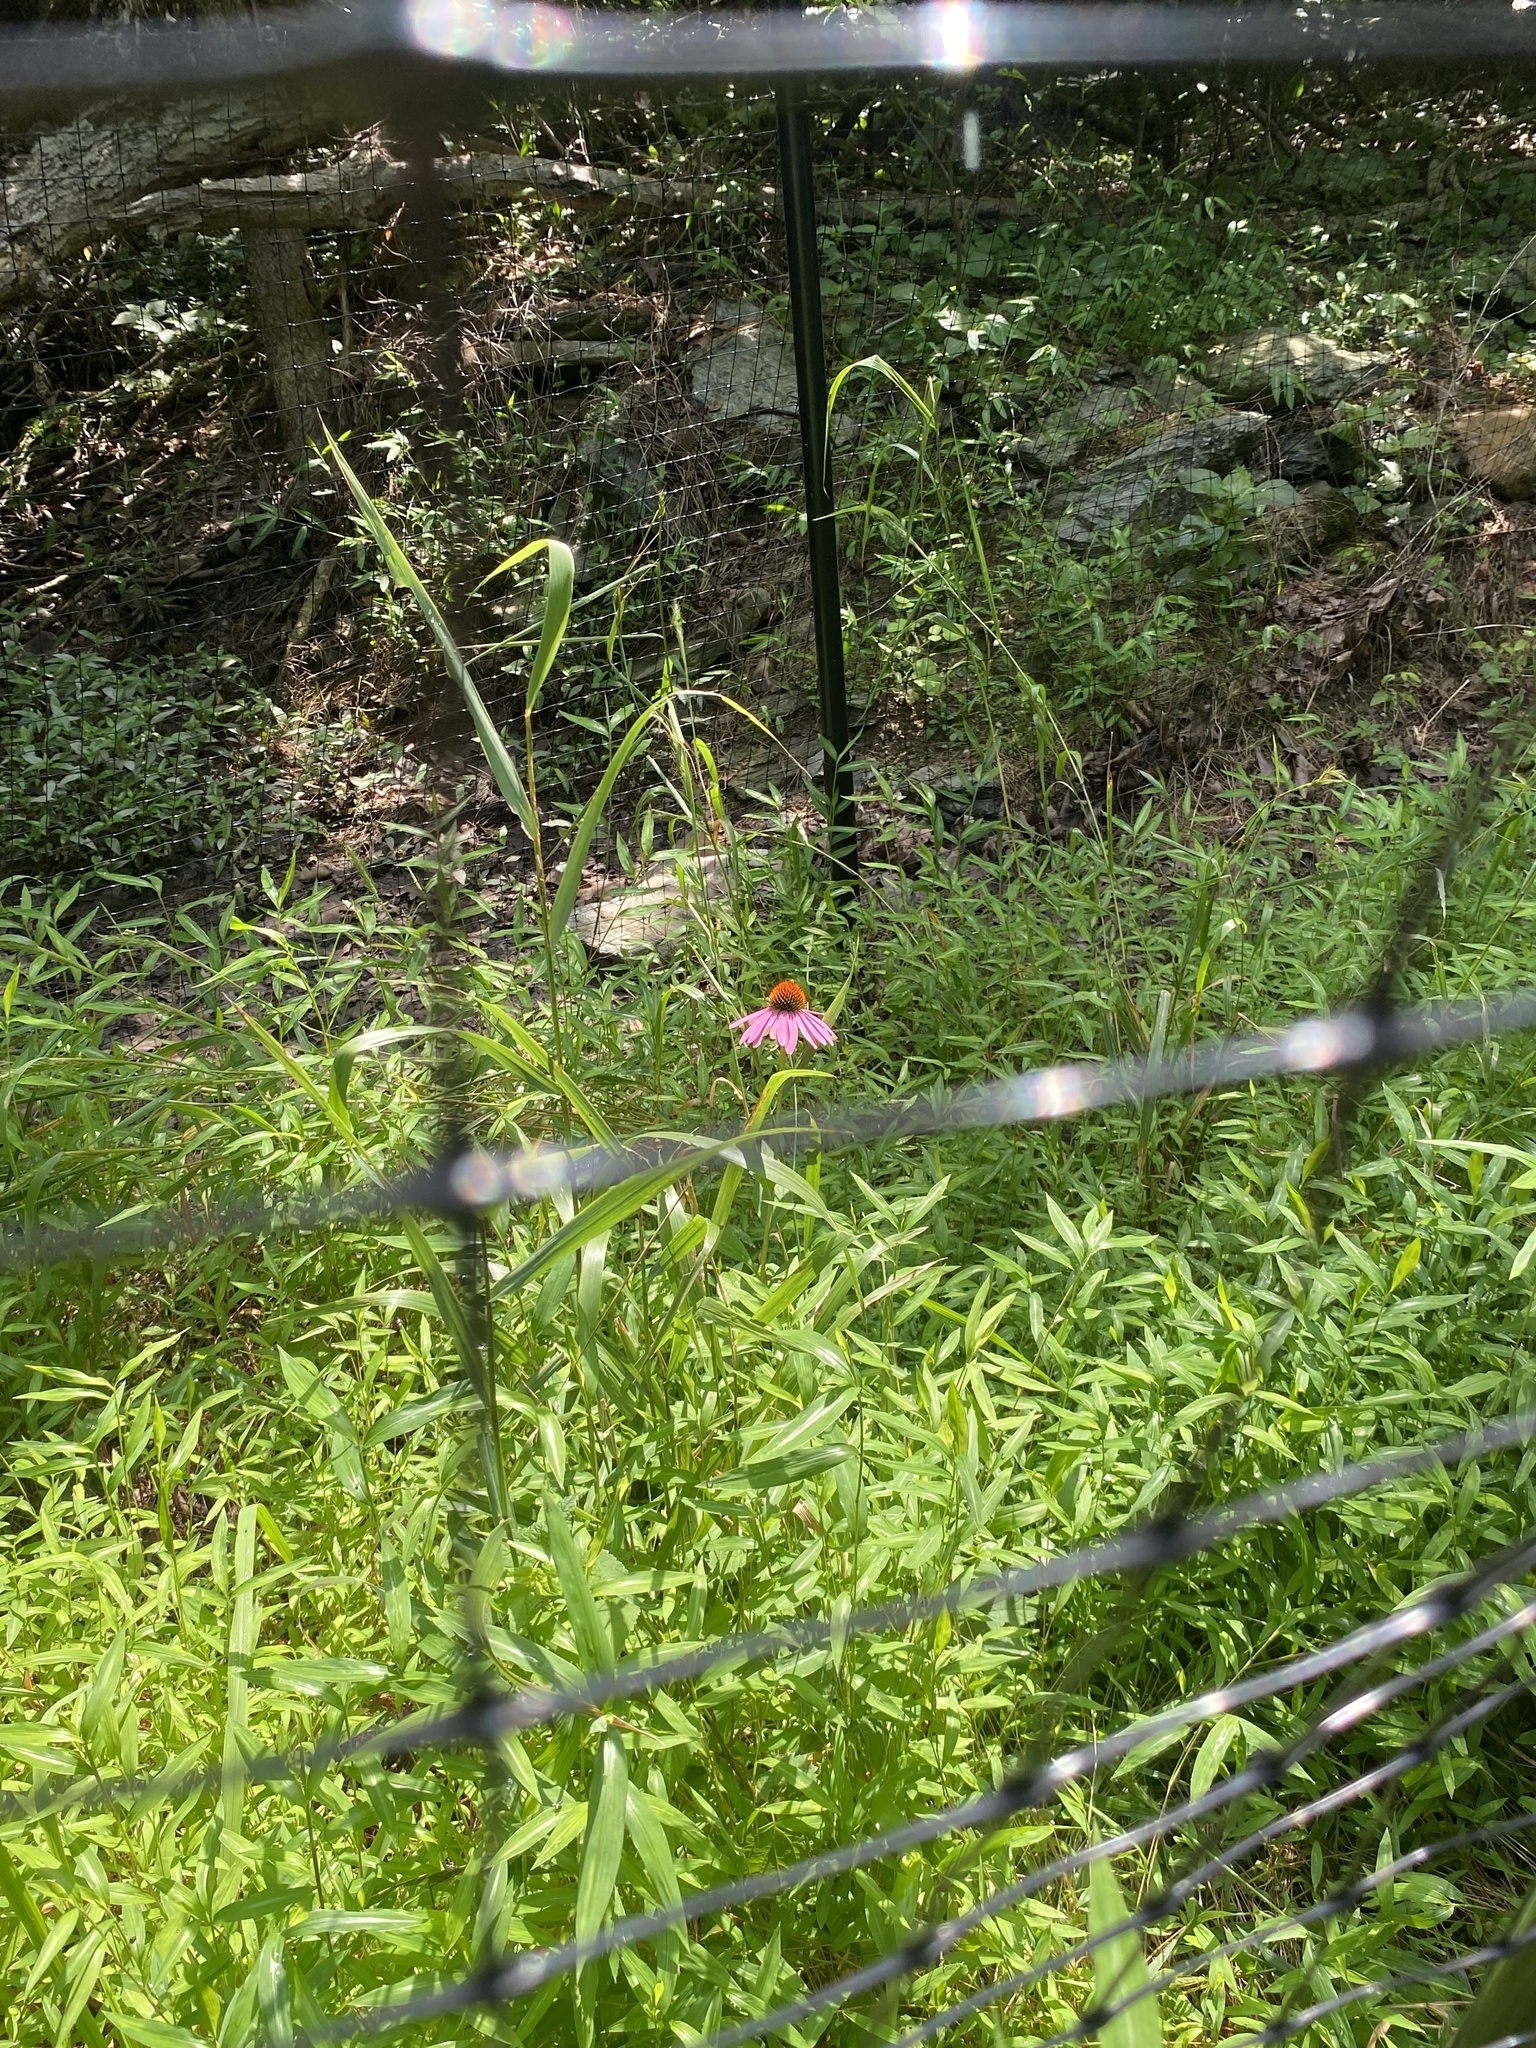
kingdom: Plantae
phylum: Tracheophyta
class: Magnoliopsida
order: Asterales
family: Asteraceae
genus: Echinacea
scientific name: Echinacea purpurea
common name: Broad-leaved purple coneflower
